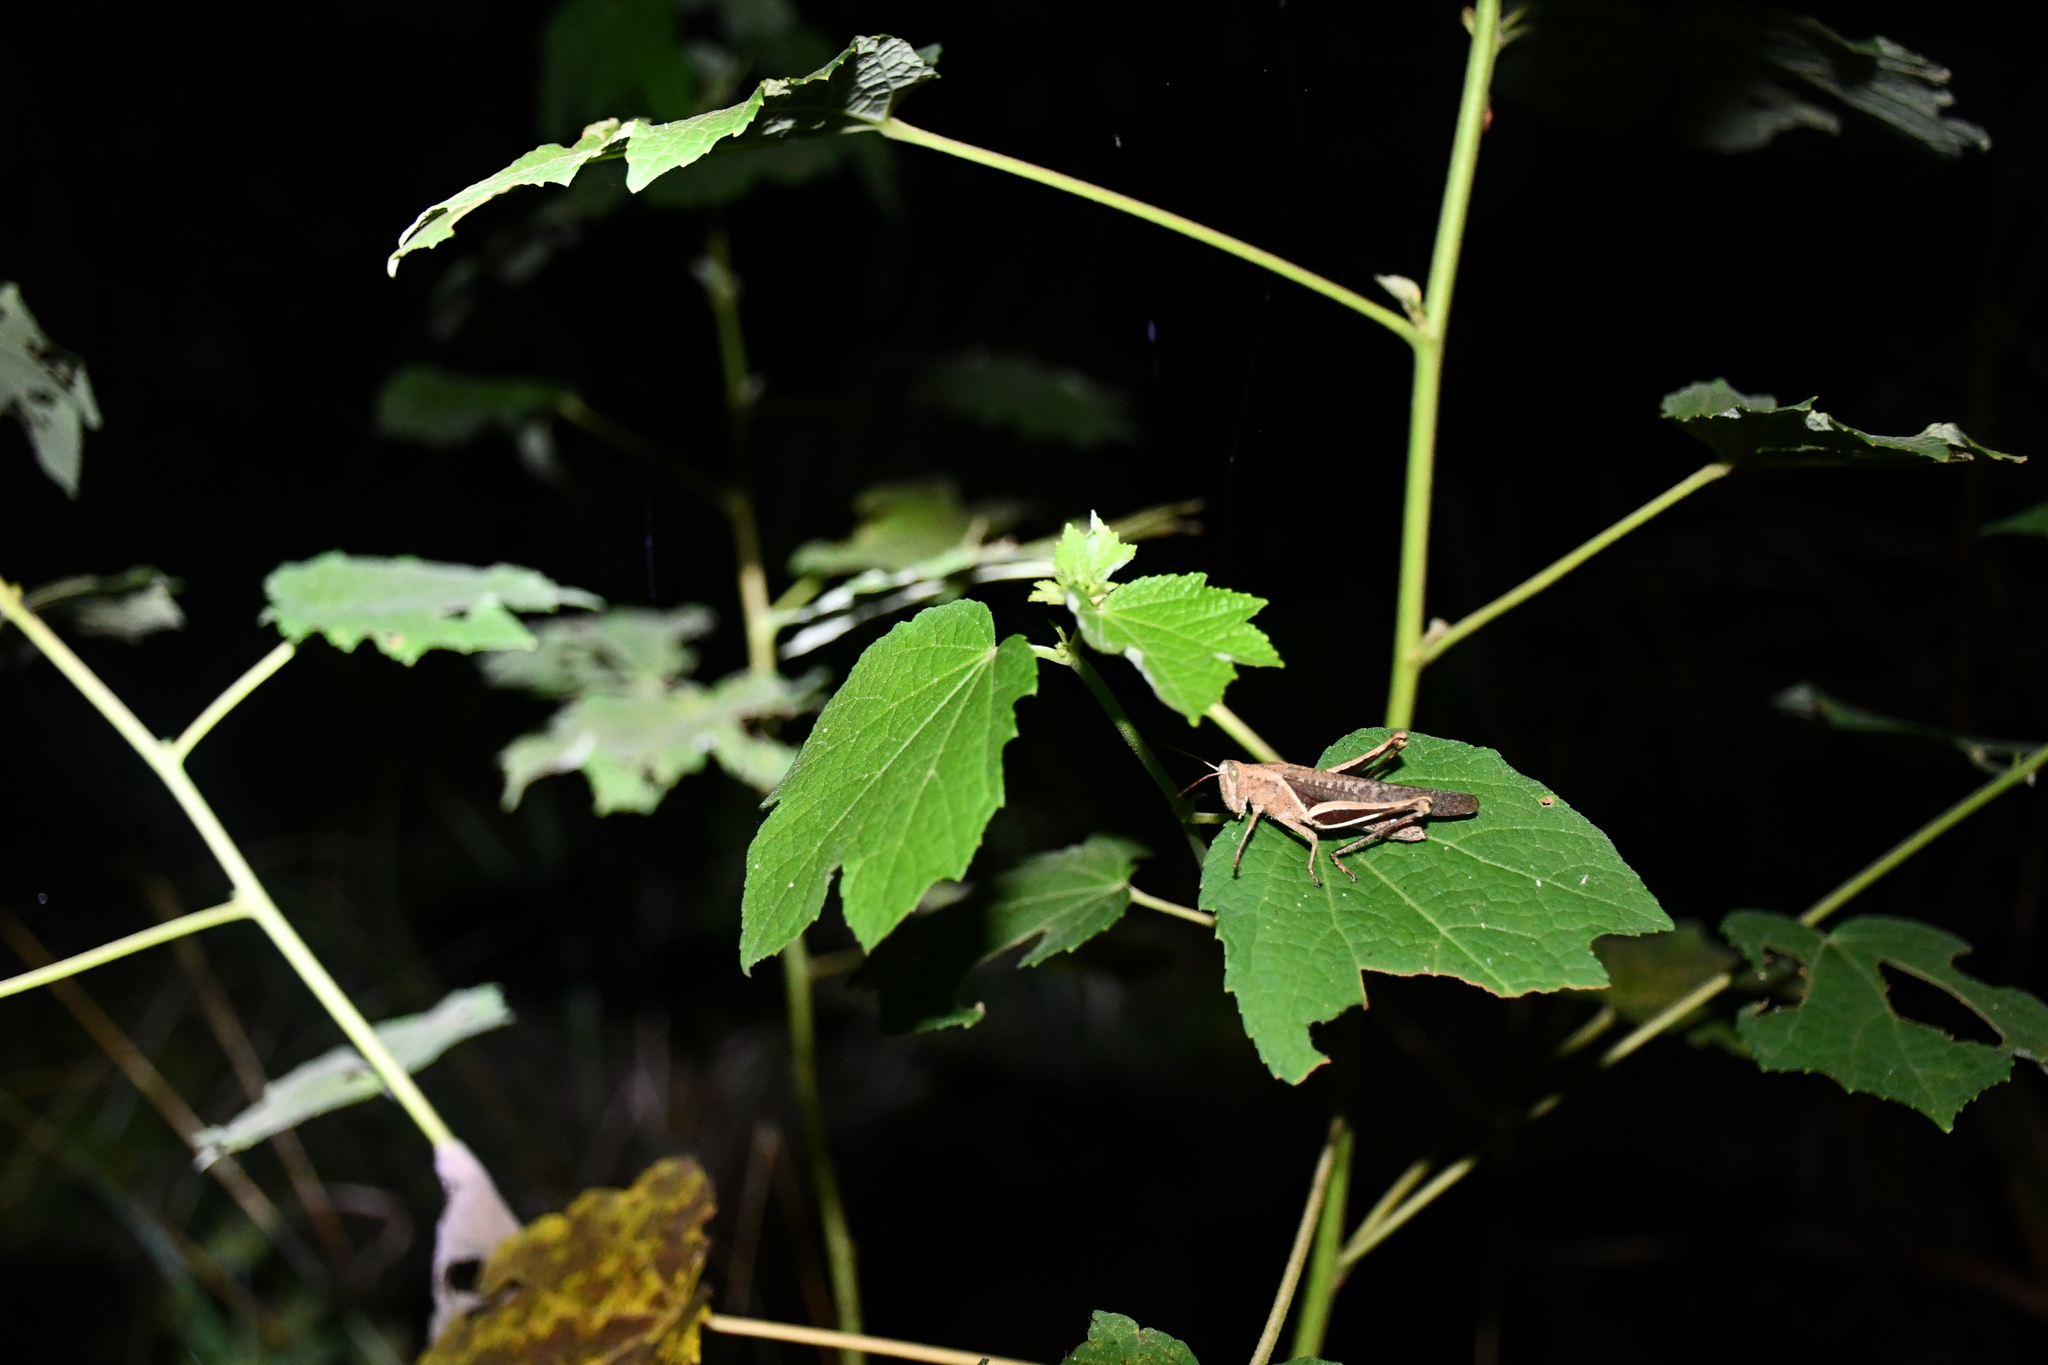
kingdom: Animalia
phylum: Arthropoda
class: Insecta
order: Orthoptera
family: Acrididae
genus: Abracris
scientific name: Abracris flavolineata
